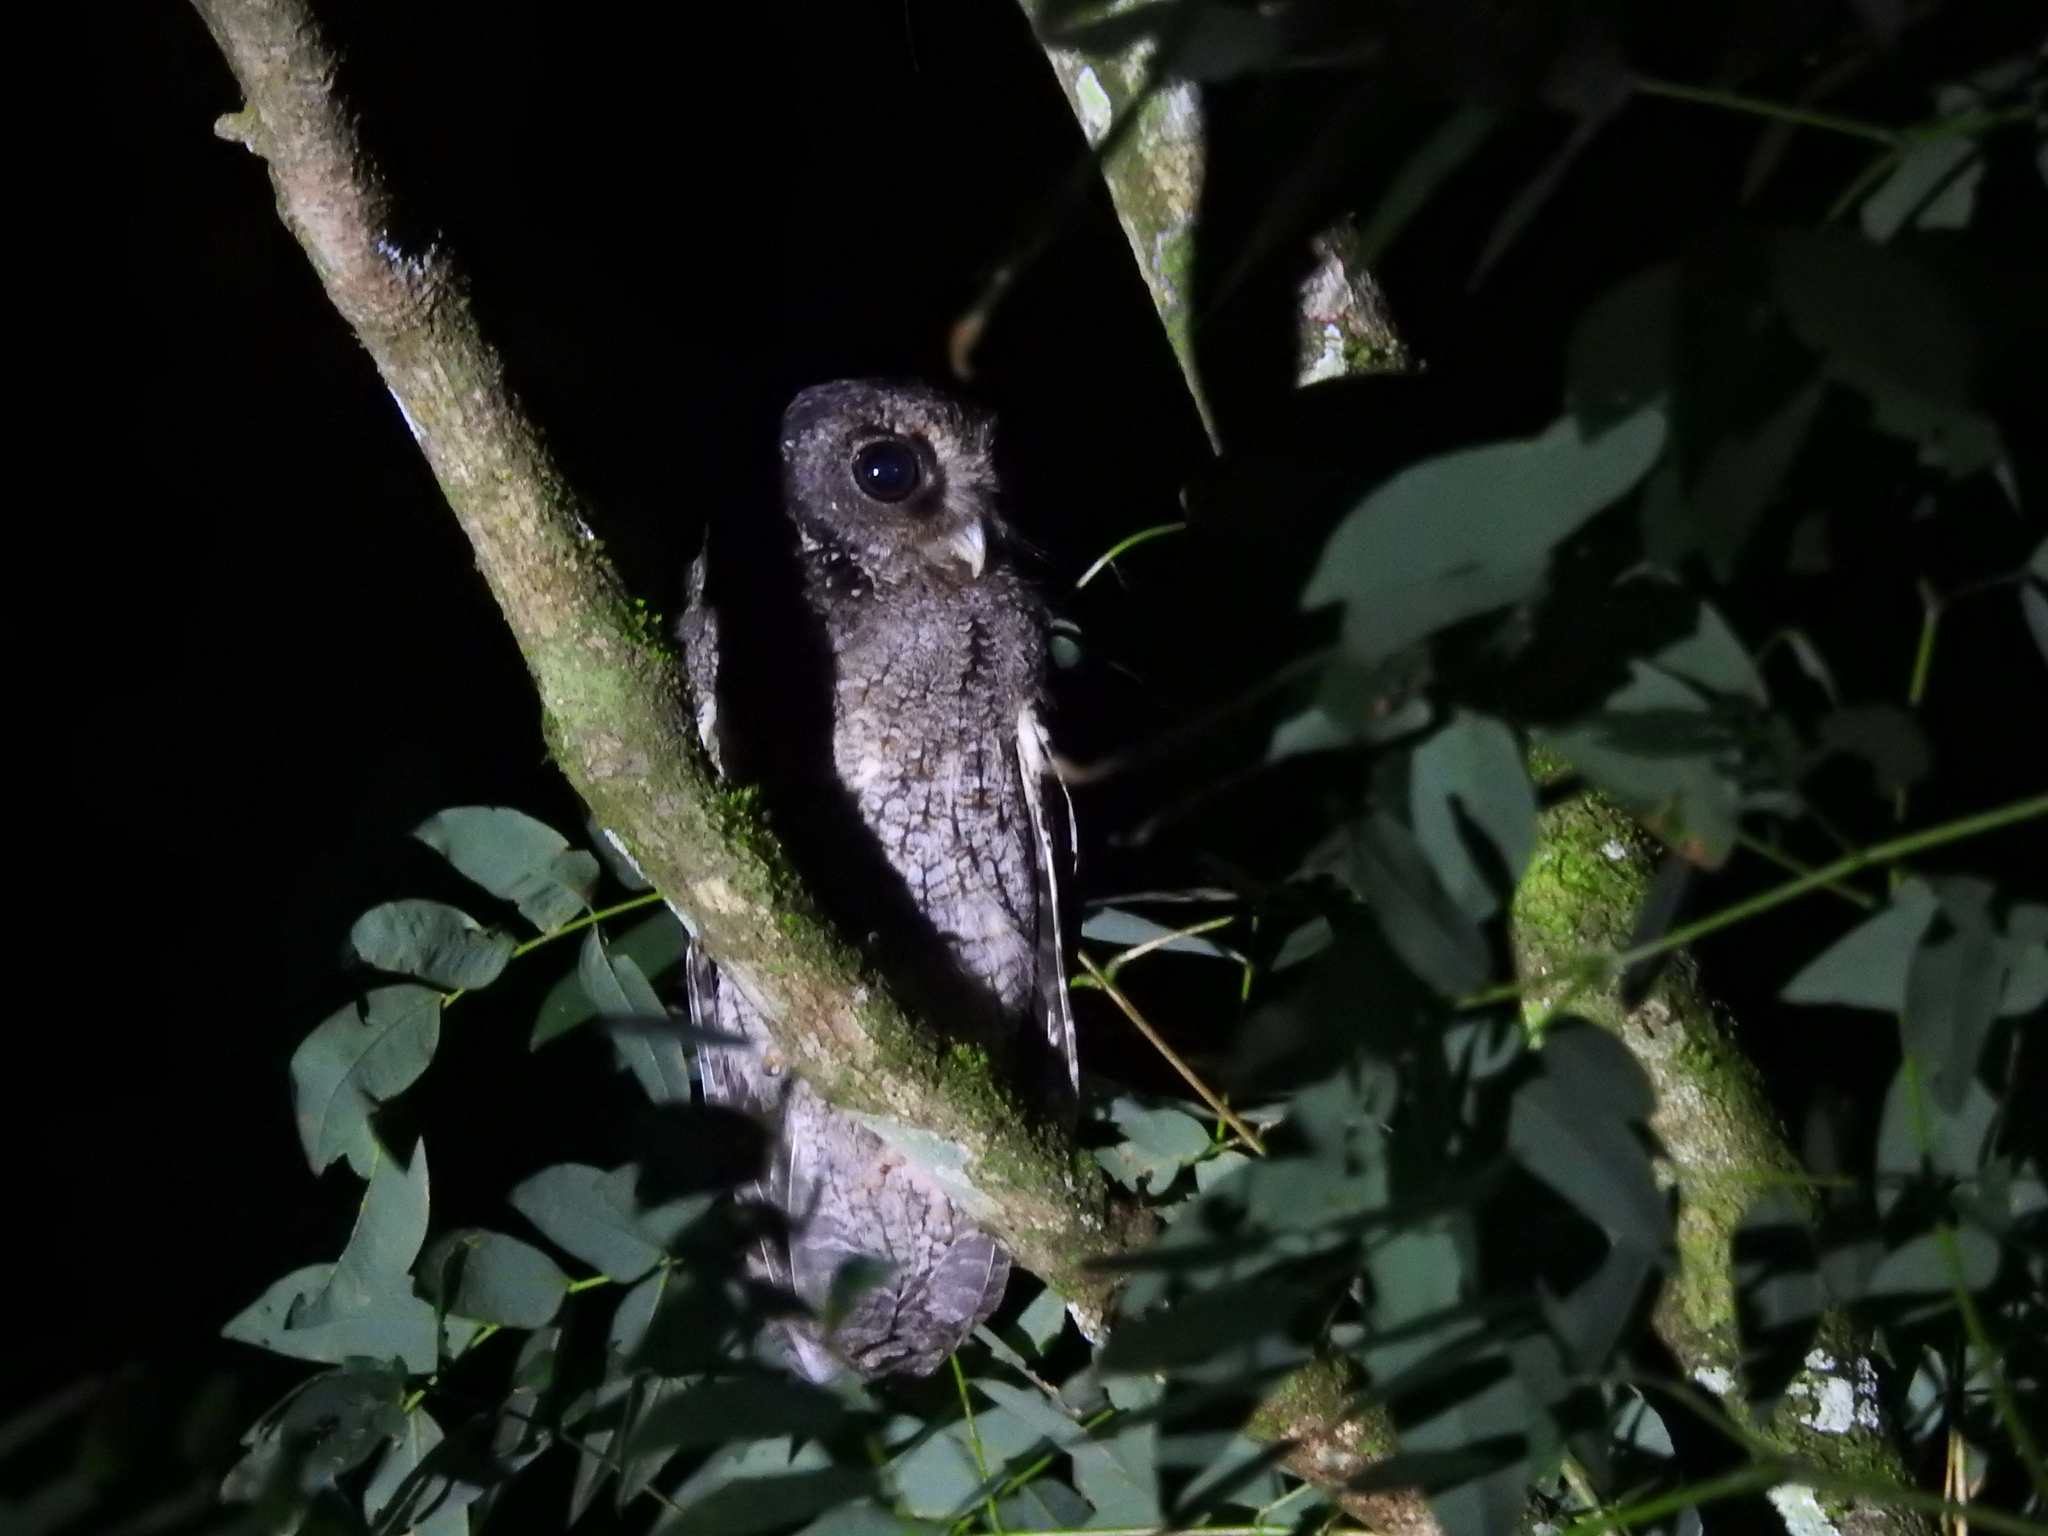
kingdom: Animalia
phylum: Chordata
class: Aves
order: Strigiformes
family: Strigidae
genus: Megascops
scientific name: Megascops atricapilla
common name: Black-capped screech owl
